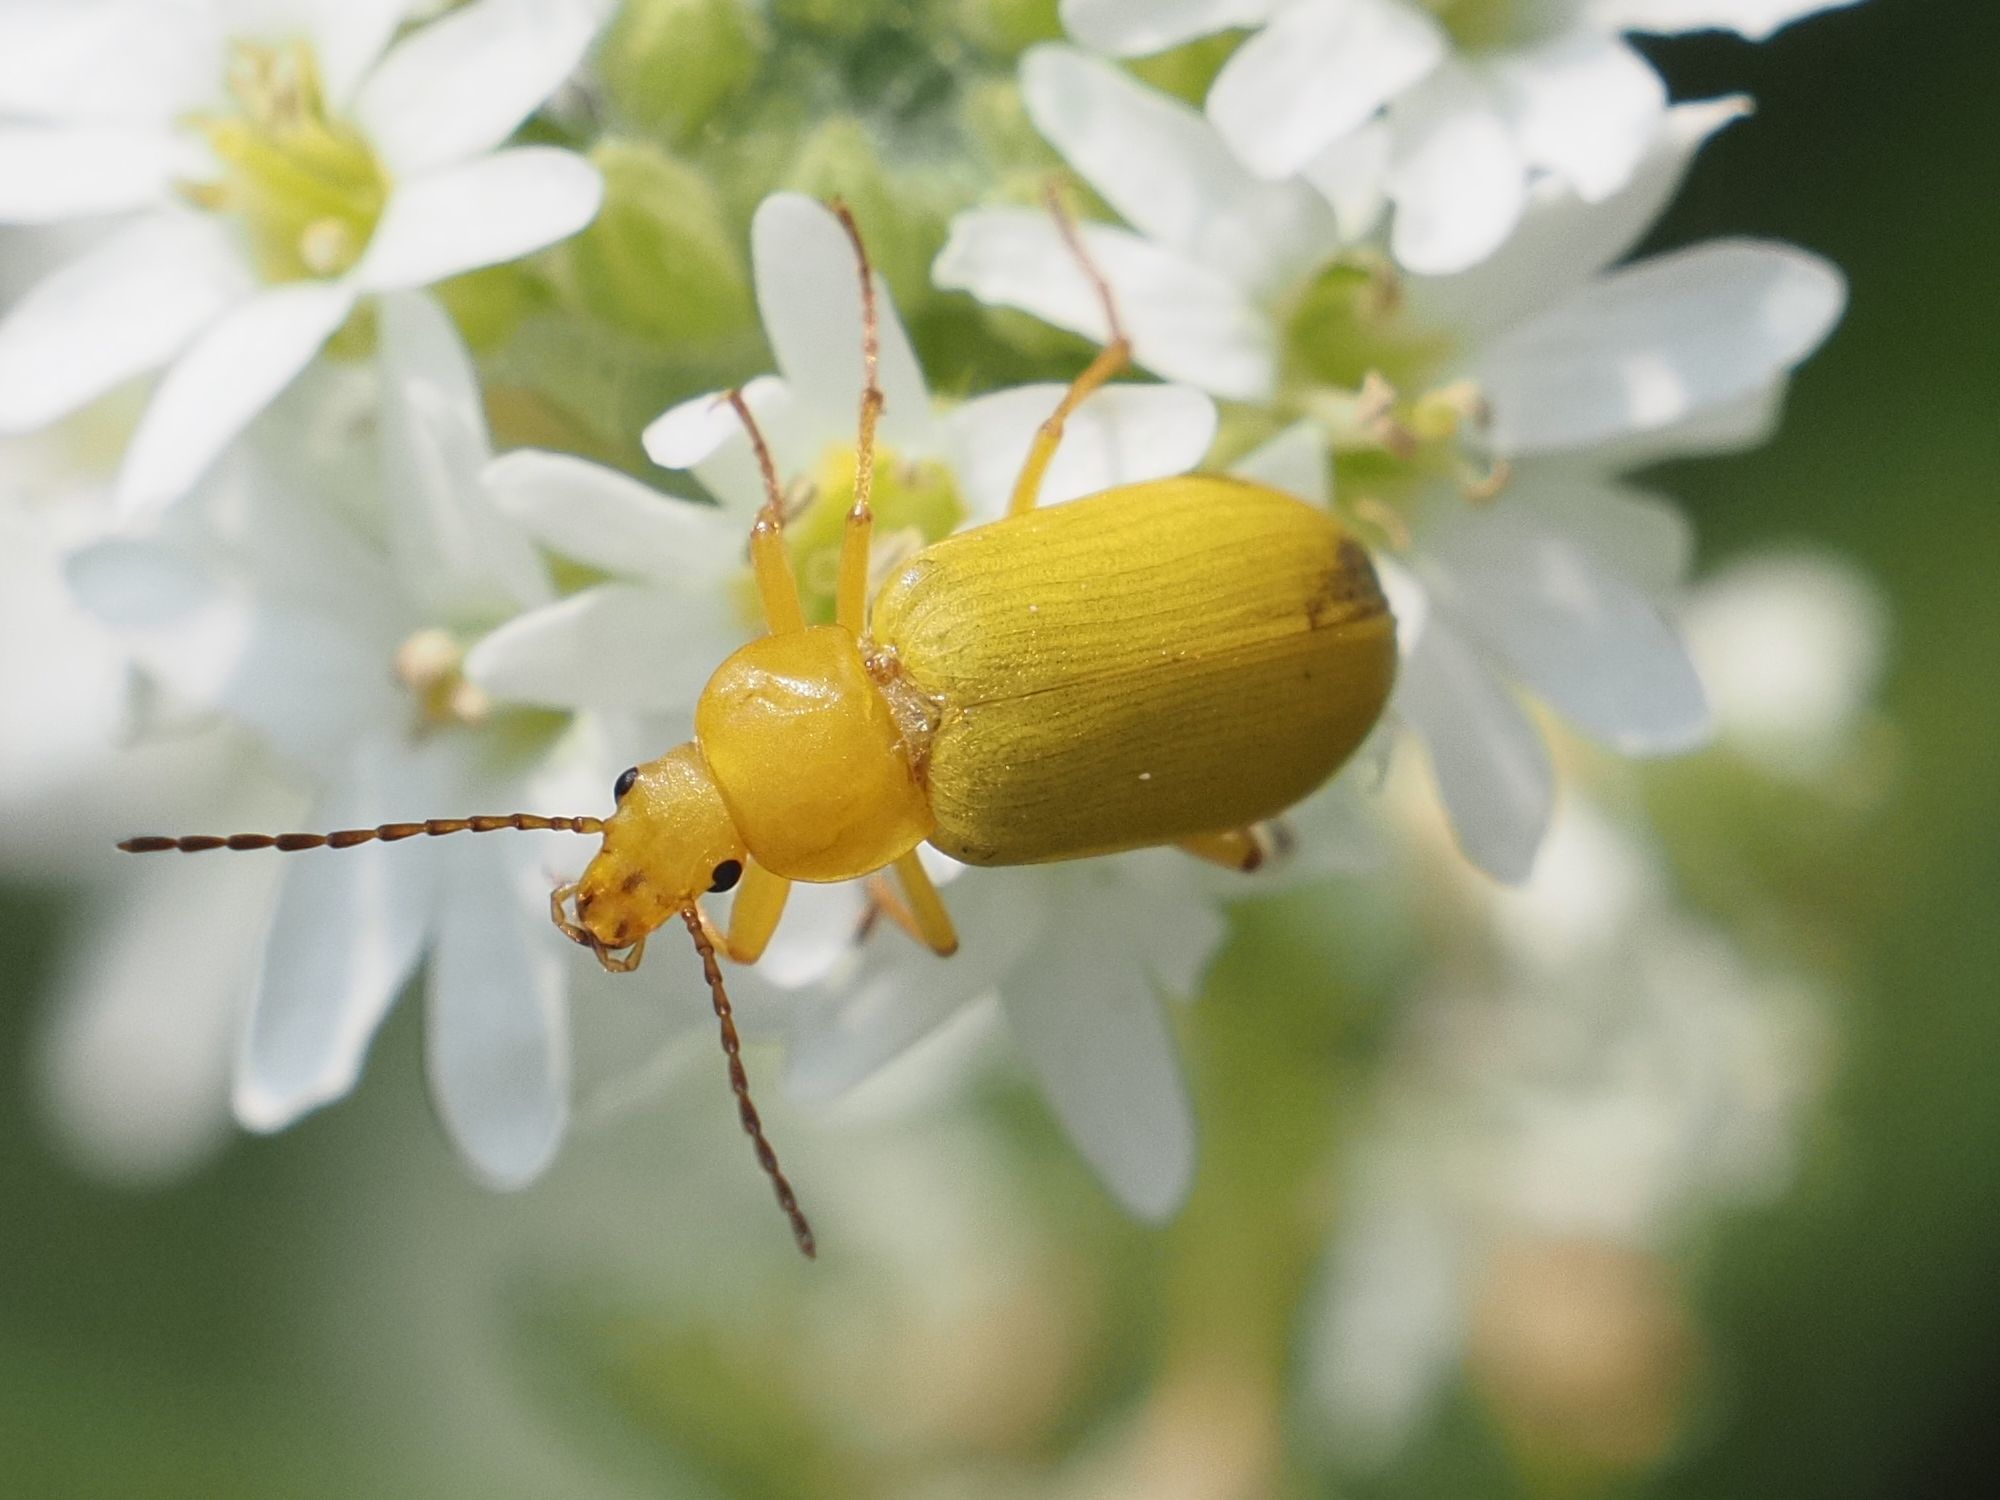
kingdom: Animalia
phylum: Arthropoda
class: Insecta
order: Coleoptera
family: Tenebrionidae
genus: Cteniopus
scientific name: Cteniopus sulphureus
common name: Sulphur beetle
